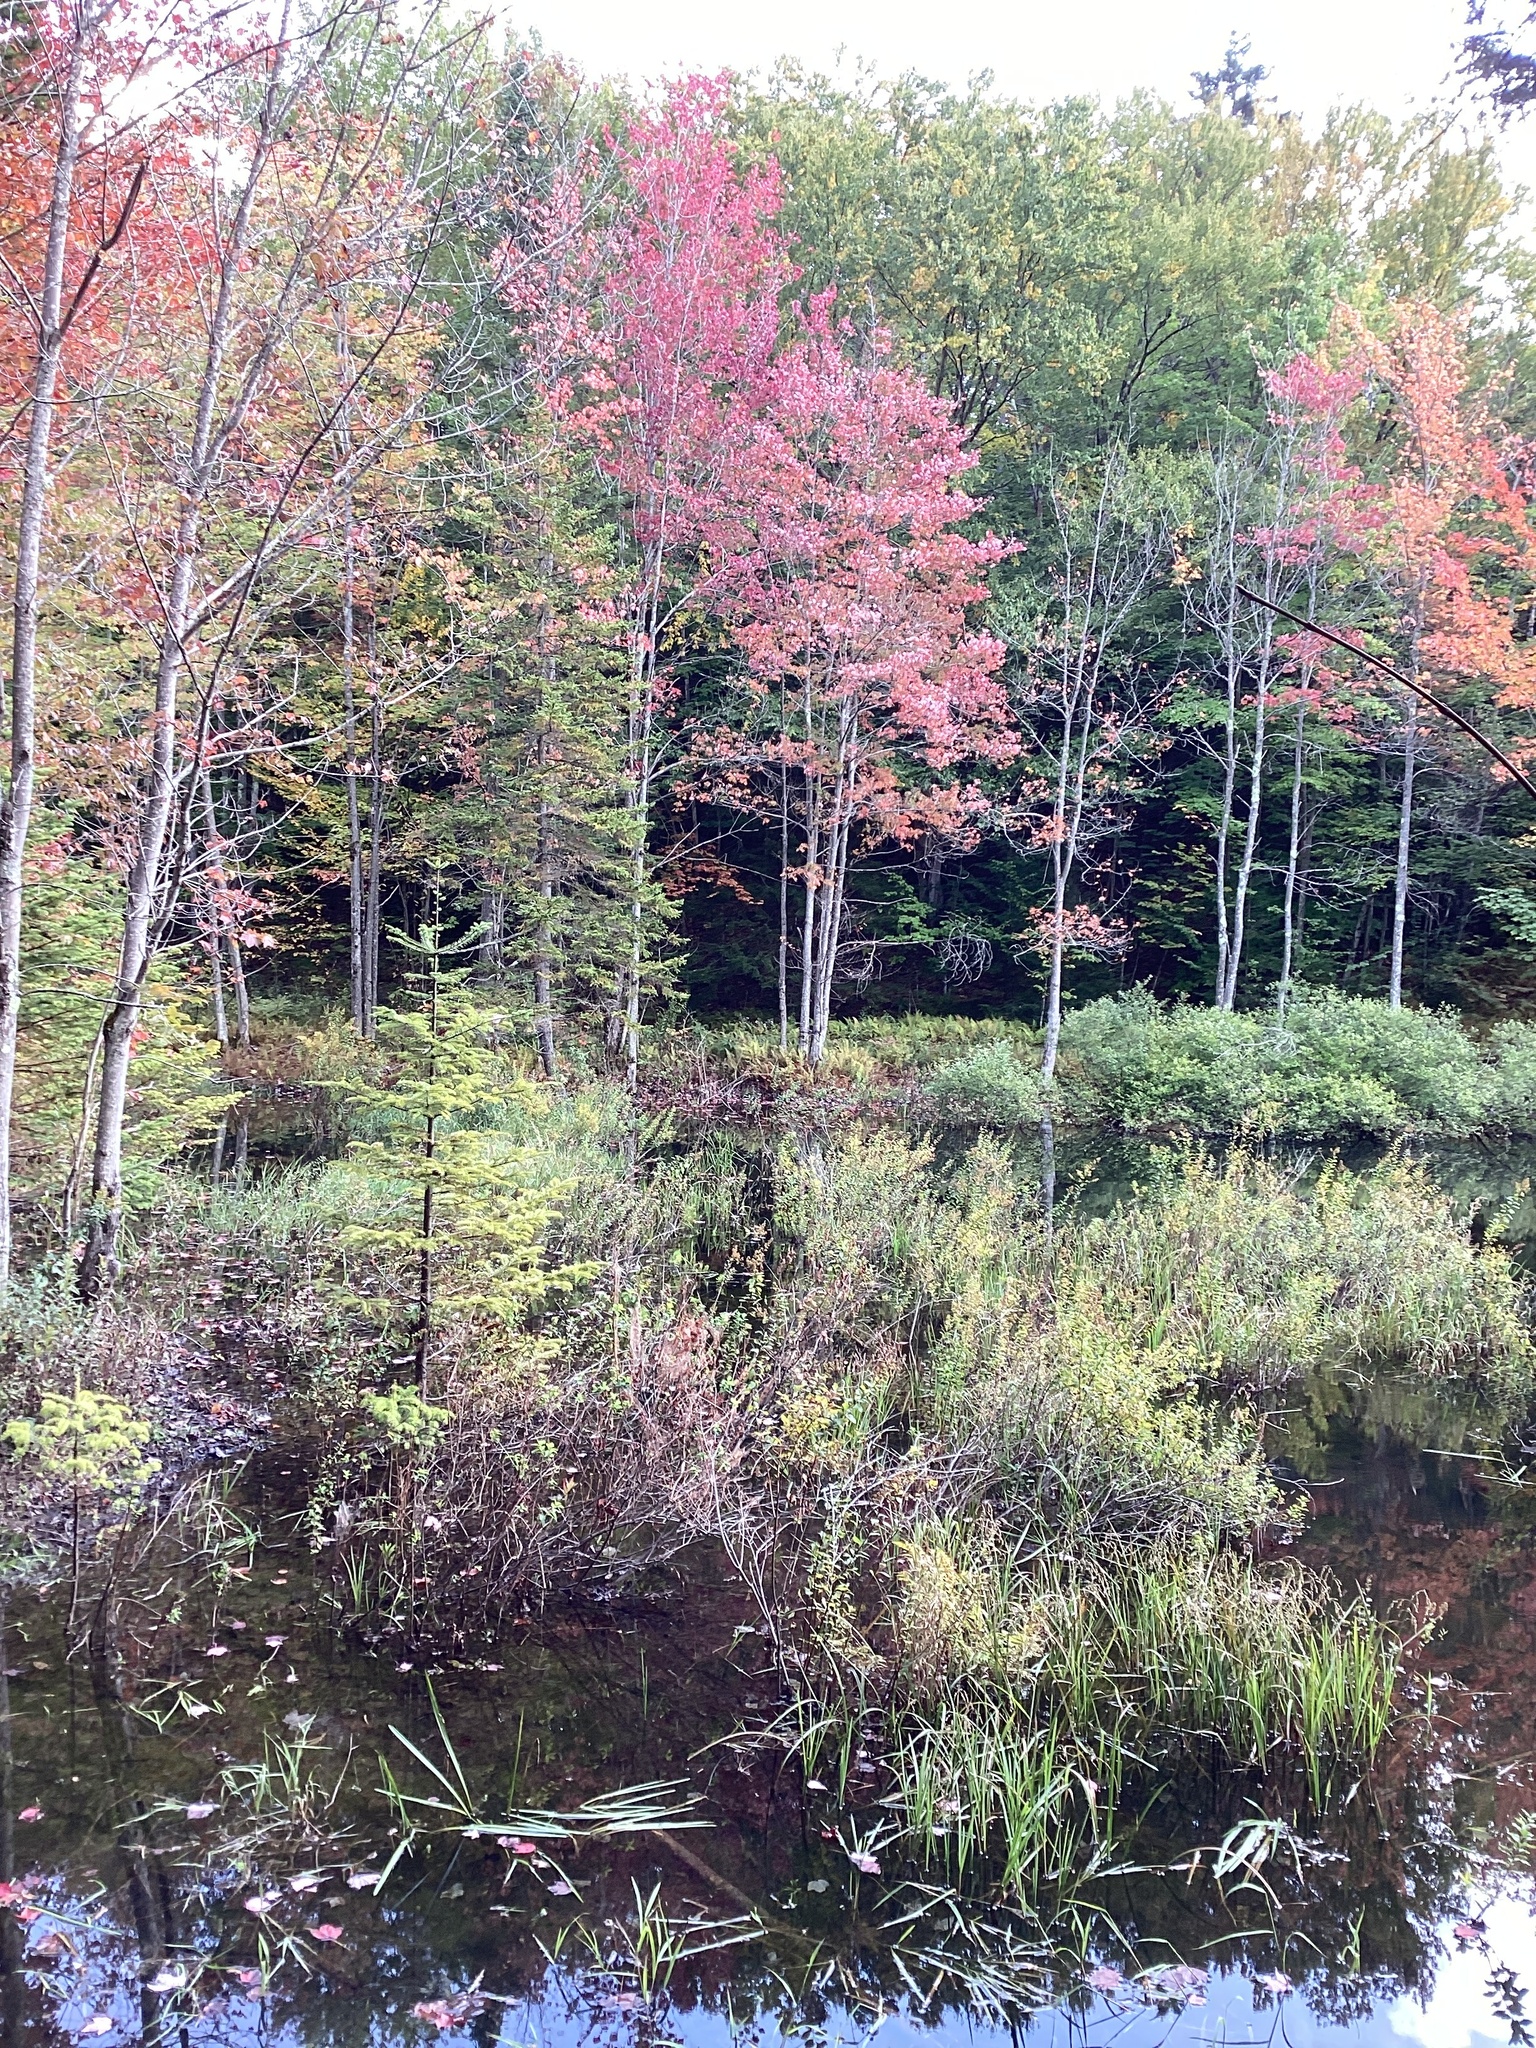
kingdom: Plantae
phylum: Tracheophyta
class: Magnoliopsida
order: Sapindales
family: Sapindaceae
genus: Acer
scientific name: Acer rubrum
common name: Red maple
